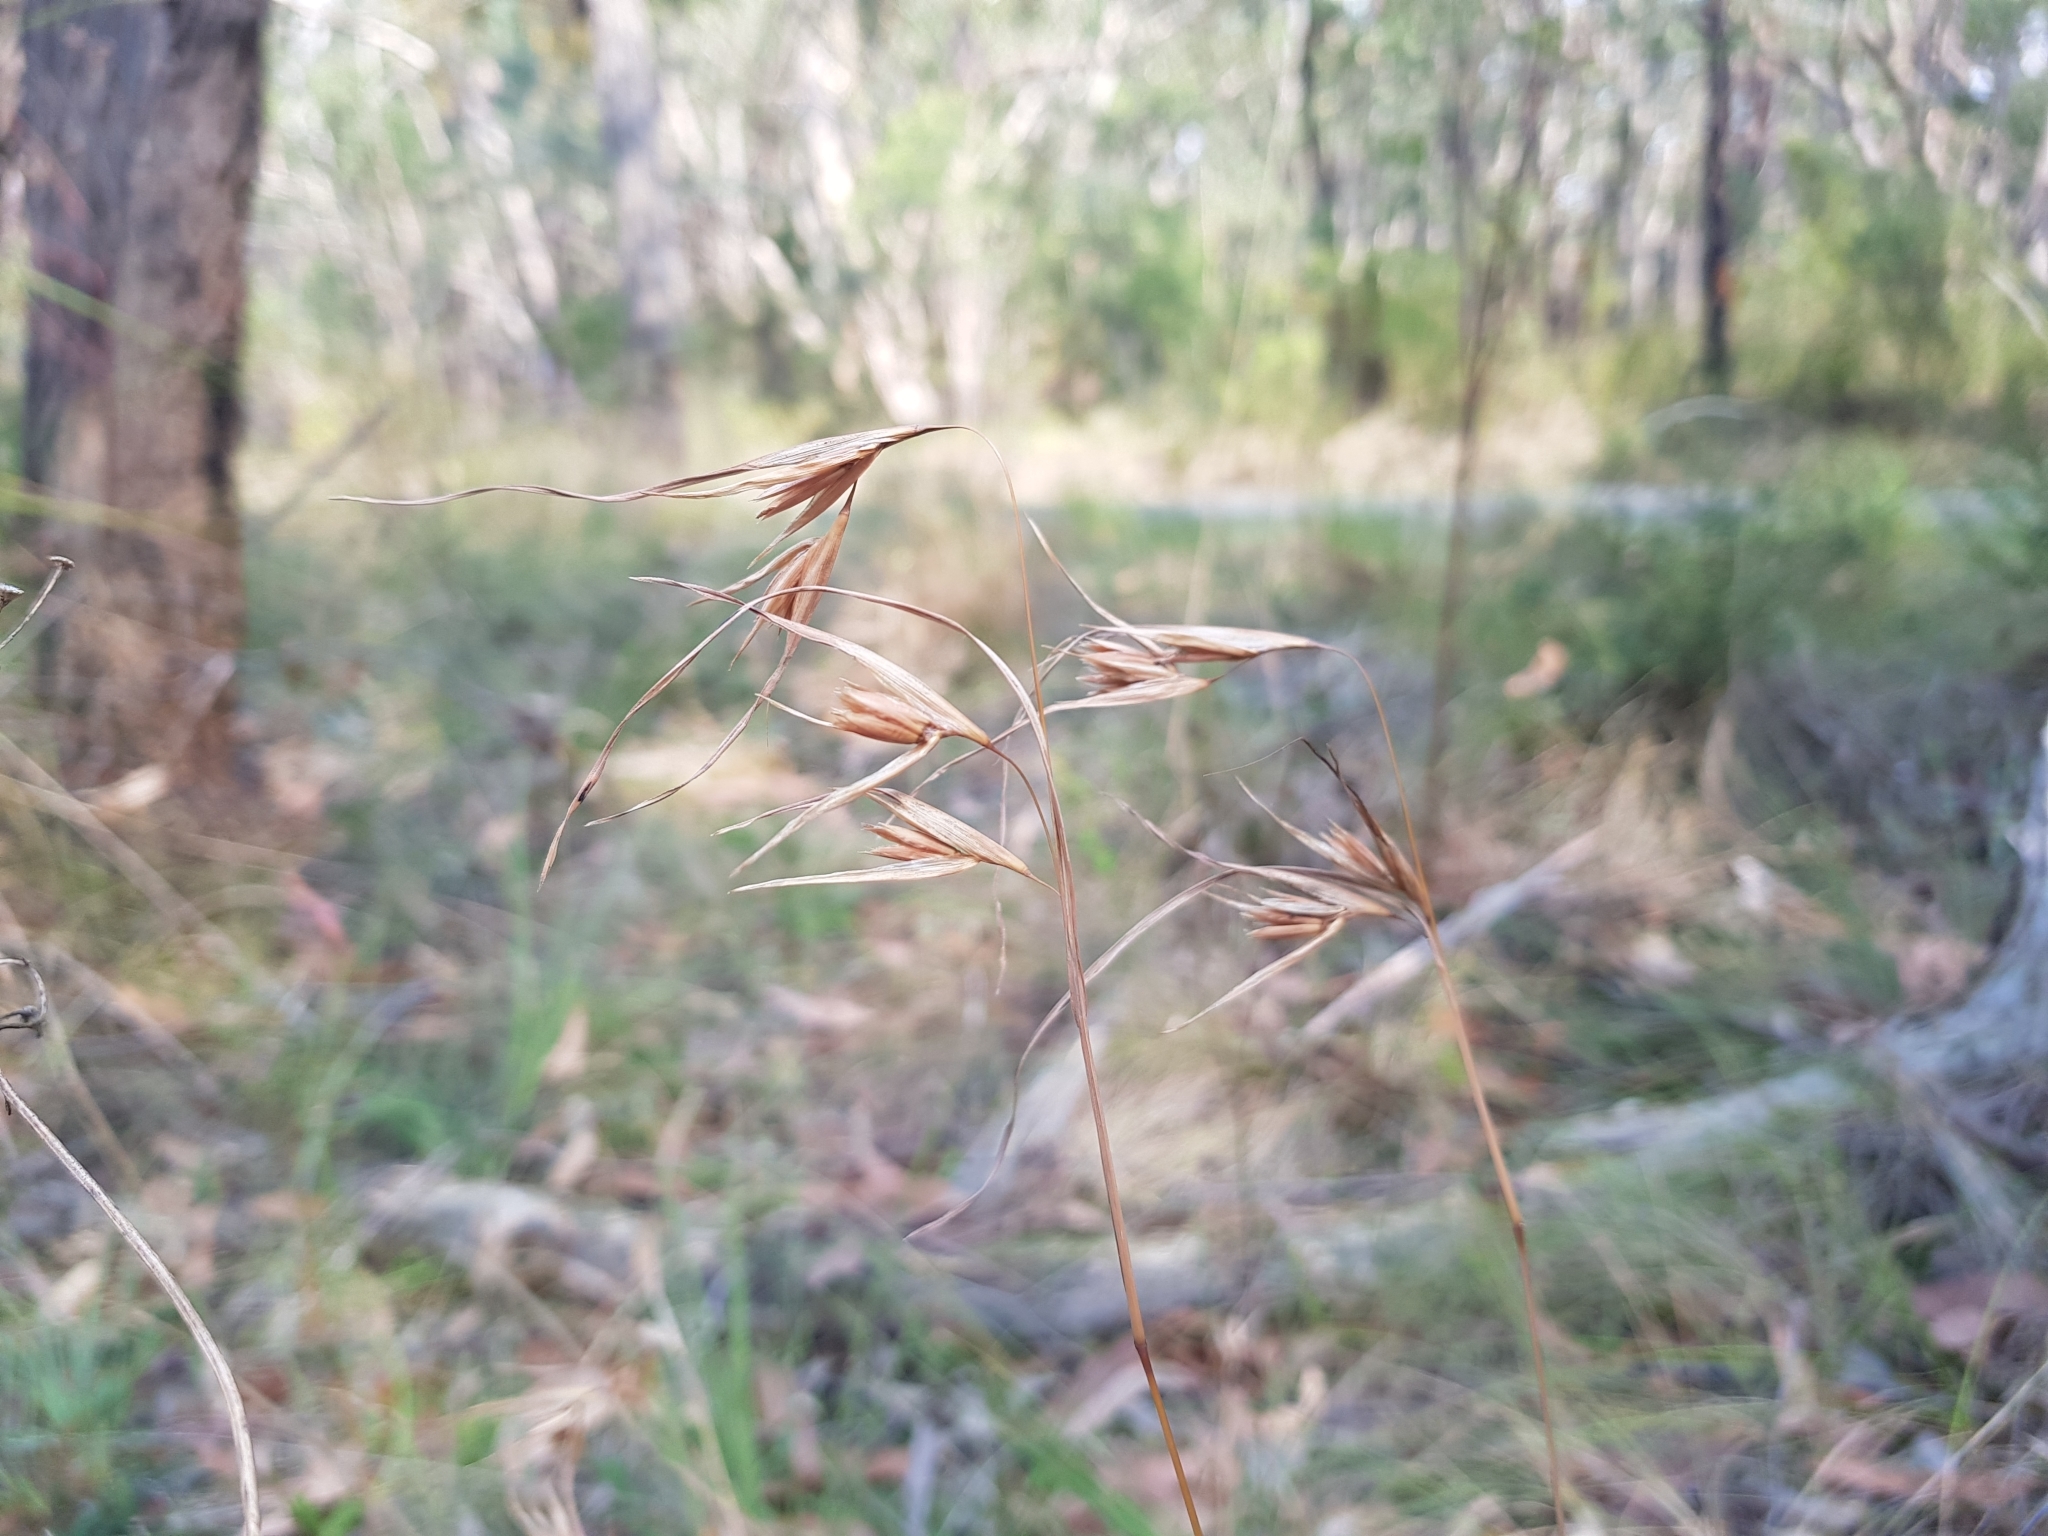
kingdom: Plantae
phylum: Tracheophyta
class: Liliopsida
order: Poales
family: Poaceae
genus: Themeda
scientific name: Themeda triandra
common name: Kangaroo grass
